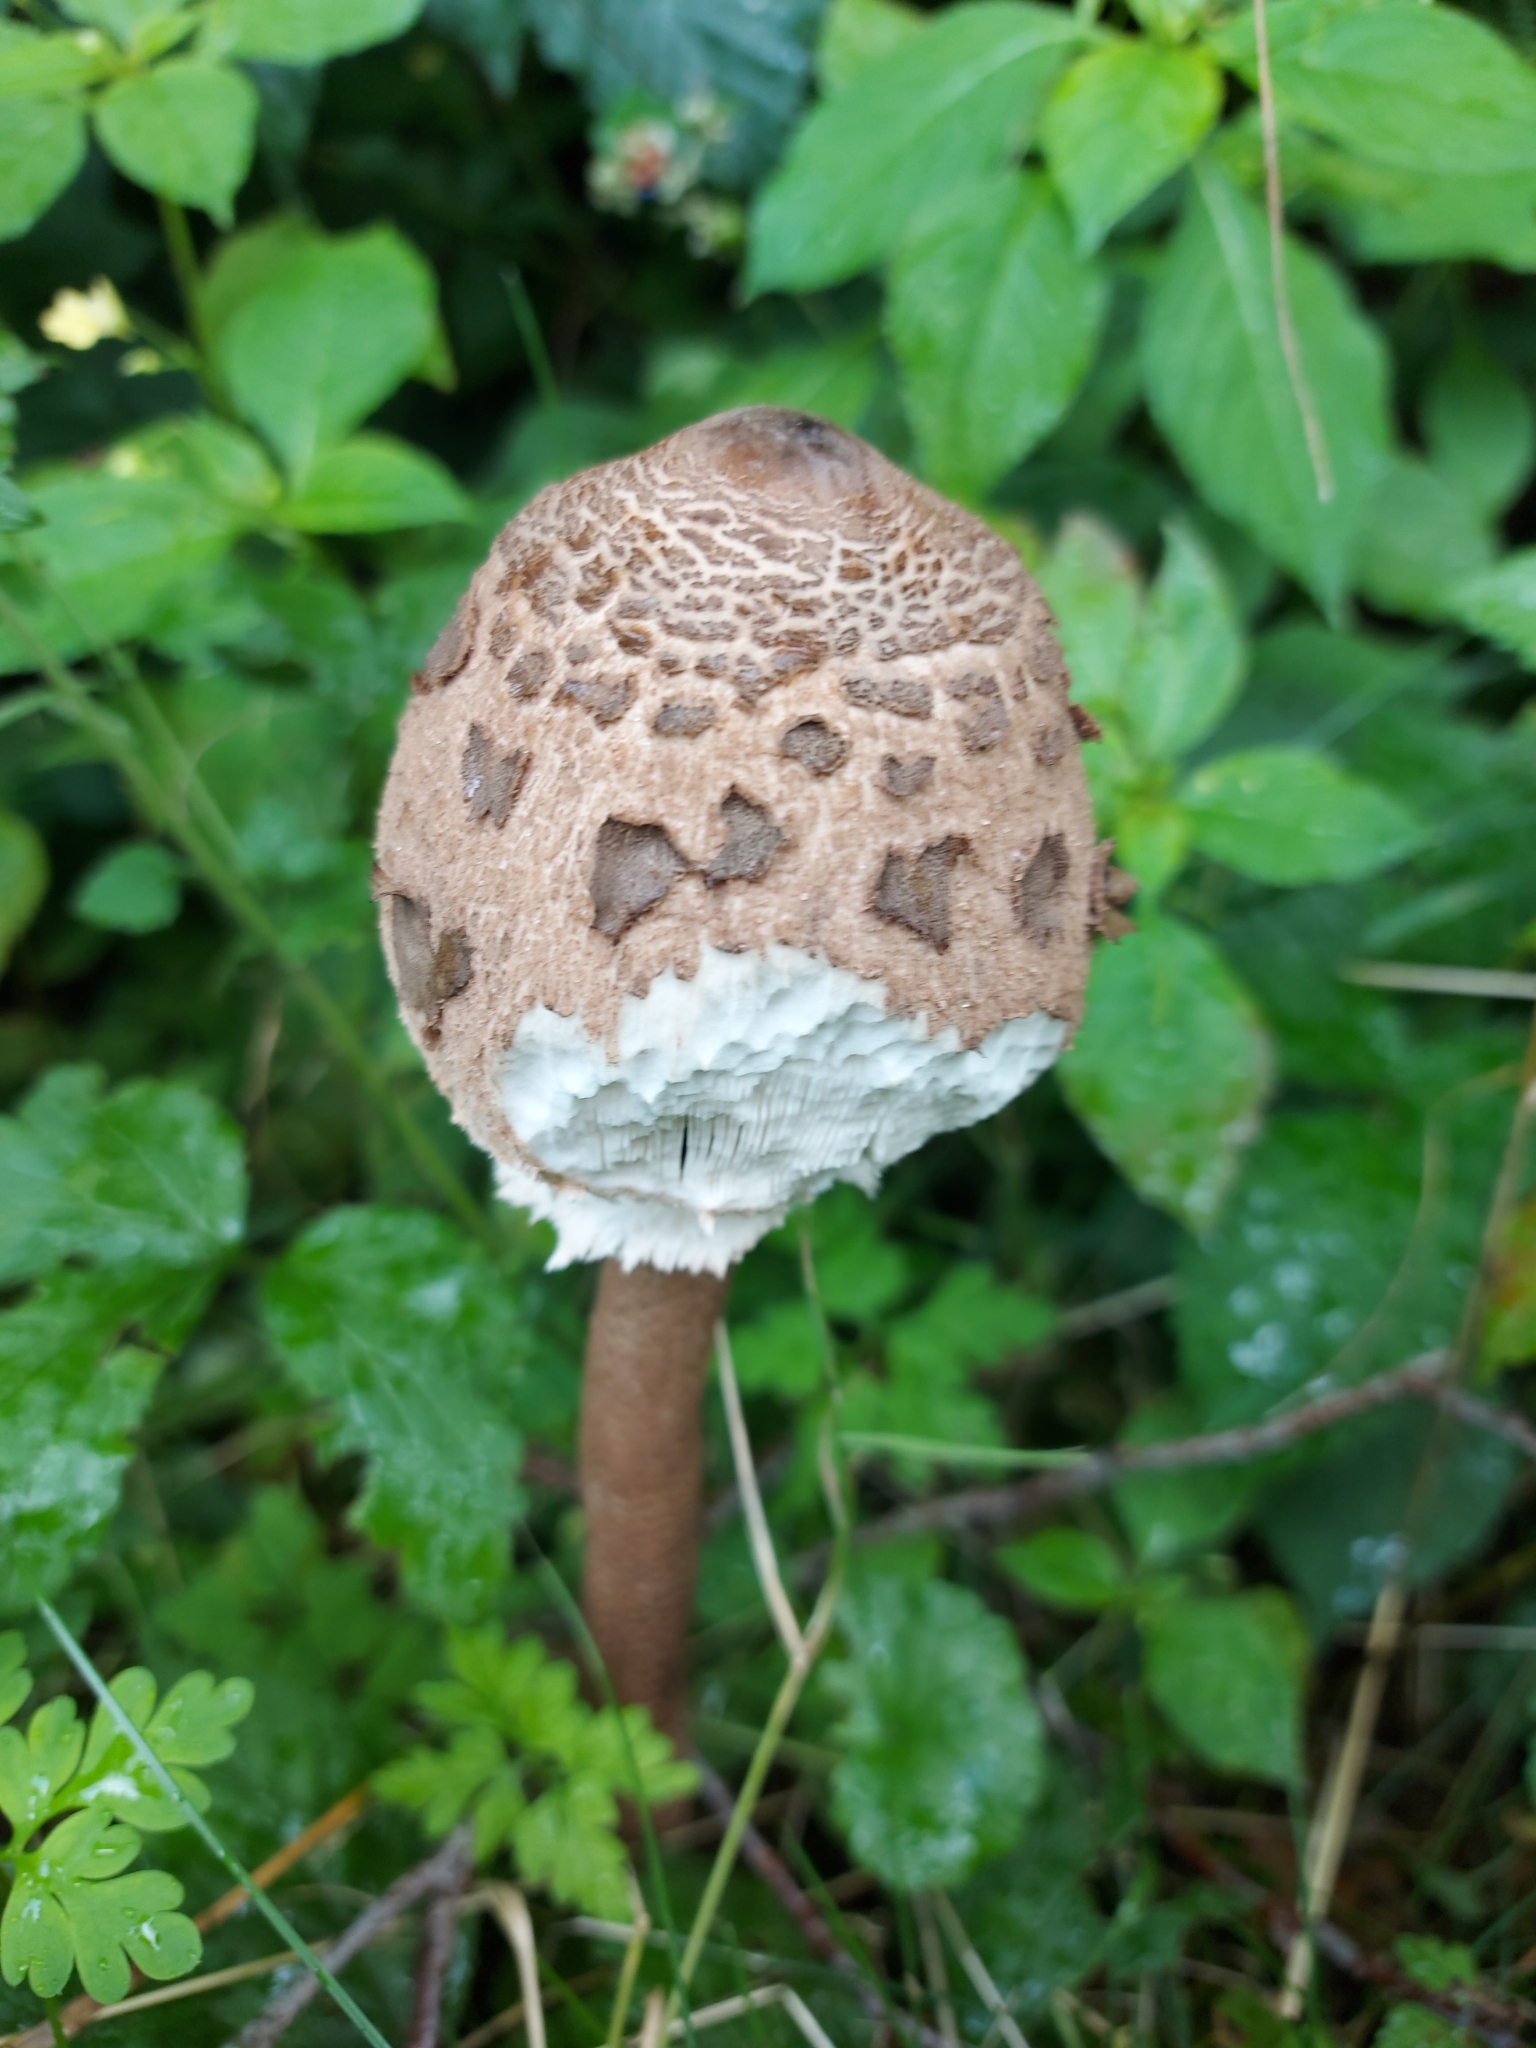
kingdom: Fungi
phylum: Basidiomycota
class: Agaricomycetes
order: Agaricales
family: Agaricaceae
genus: Macrolepiota
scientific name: Macrolepiota procera
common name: Parasol
